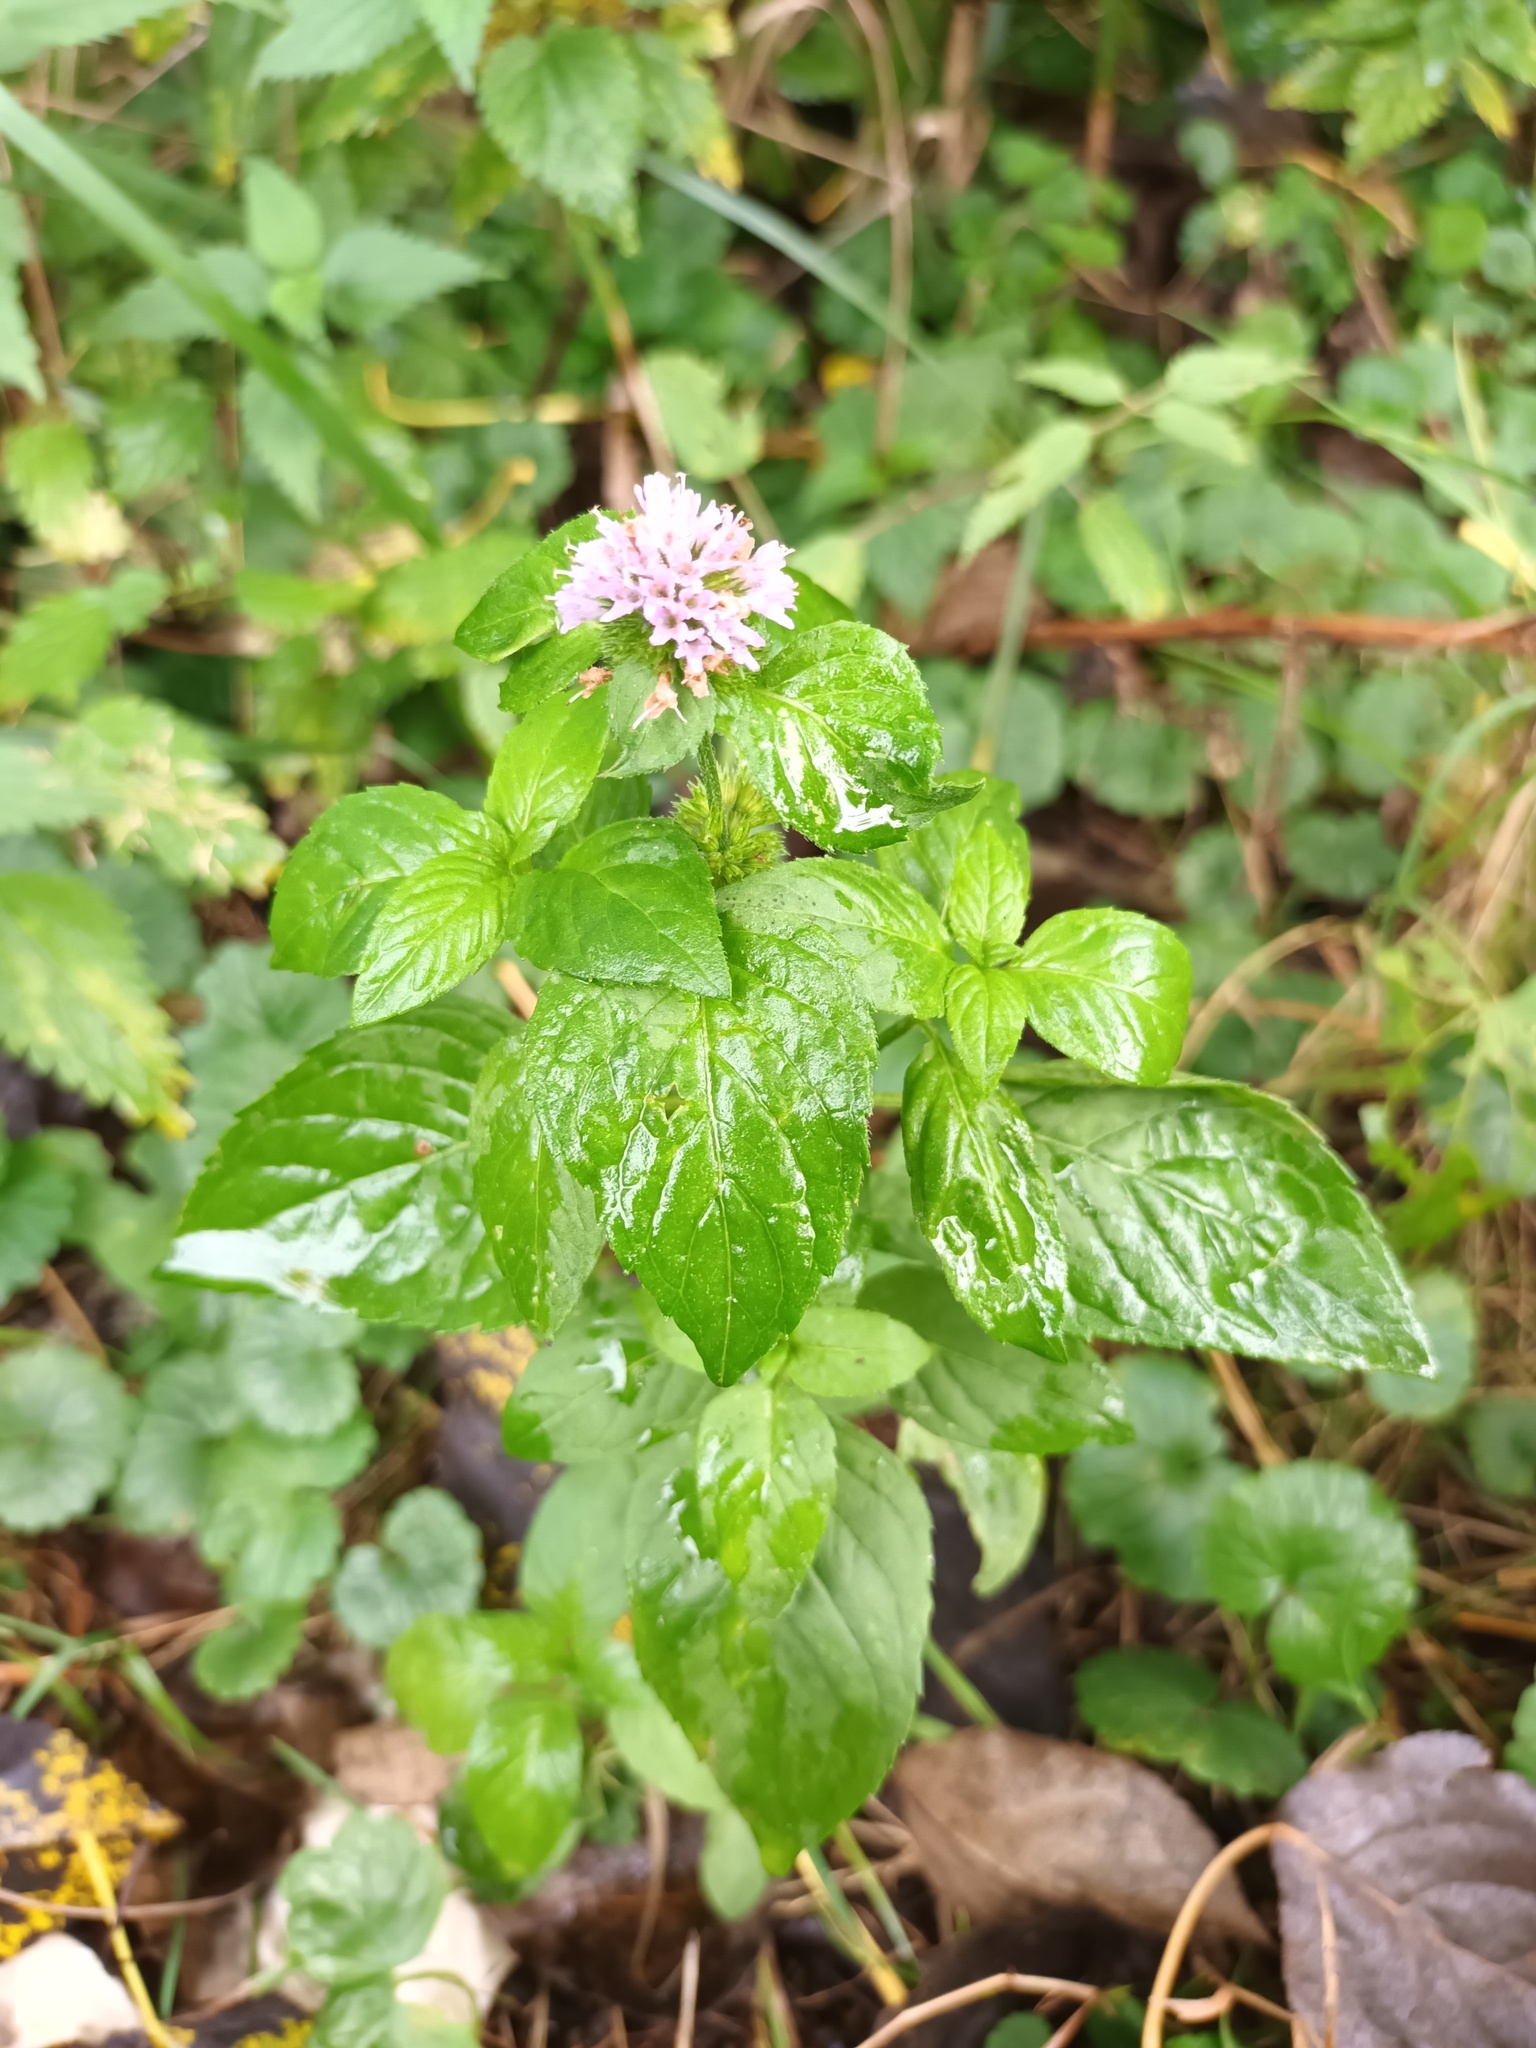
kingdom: Plantae
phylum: Tracheophyta
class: Magnoliopsida
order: Lamiales
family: Lamiaceae
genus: Mentha
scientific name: Mentha aquatica
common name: Water mint
